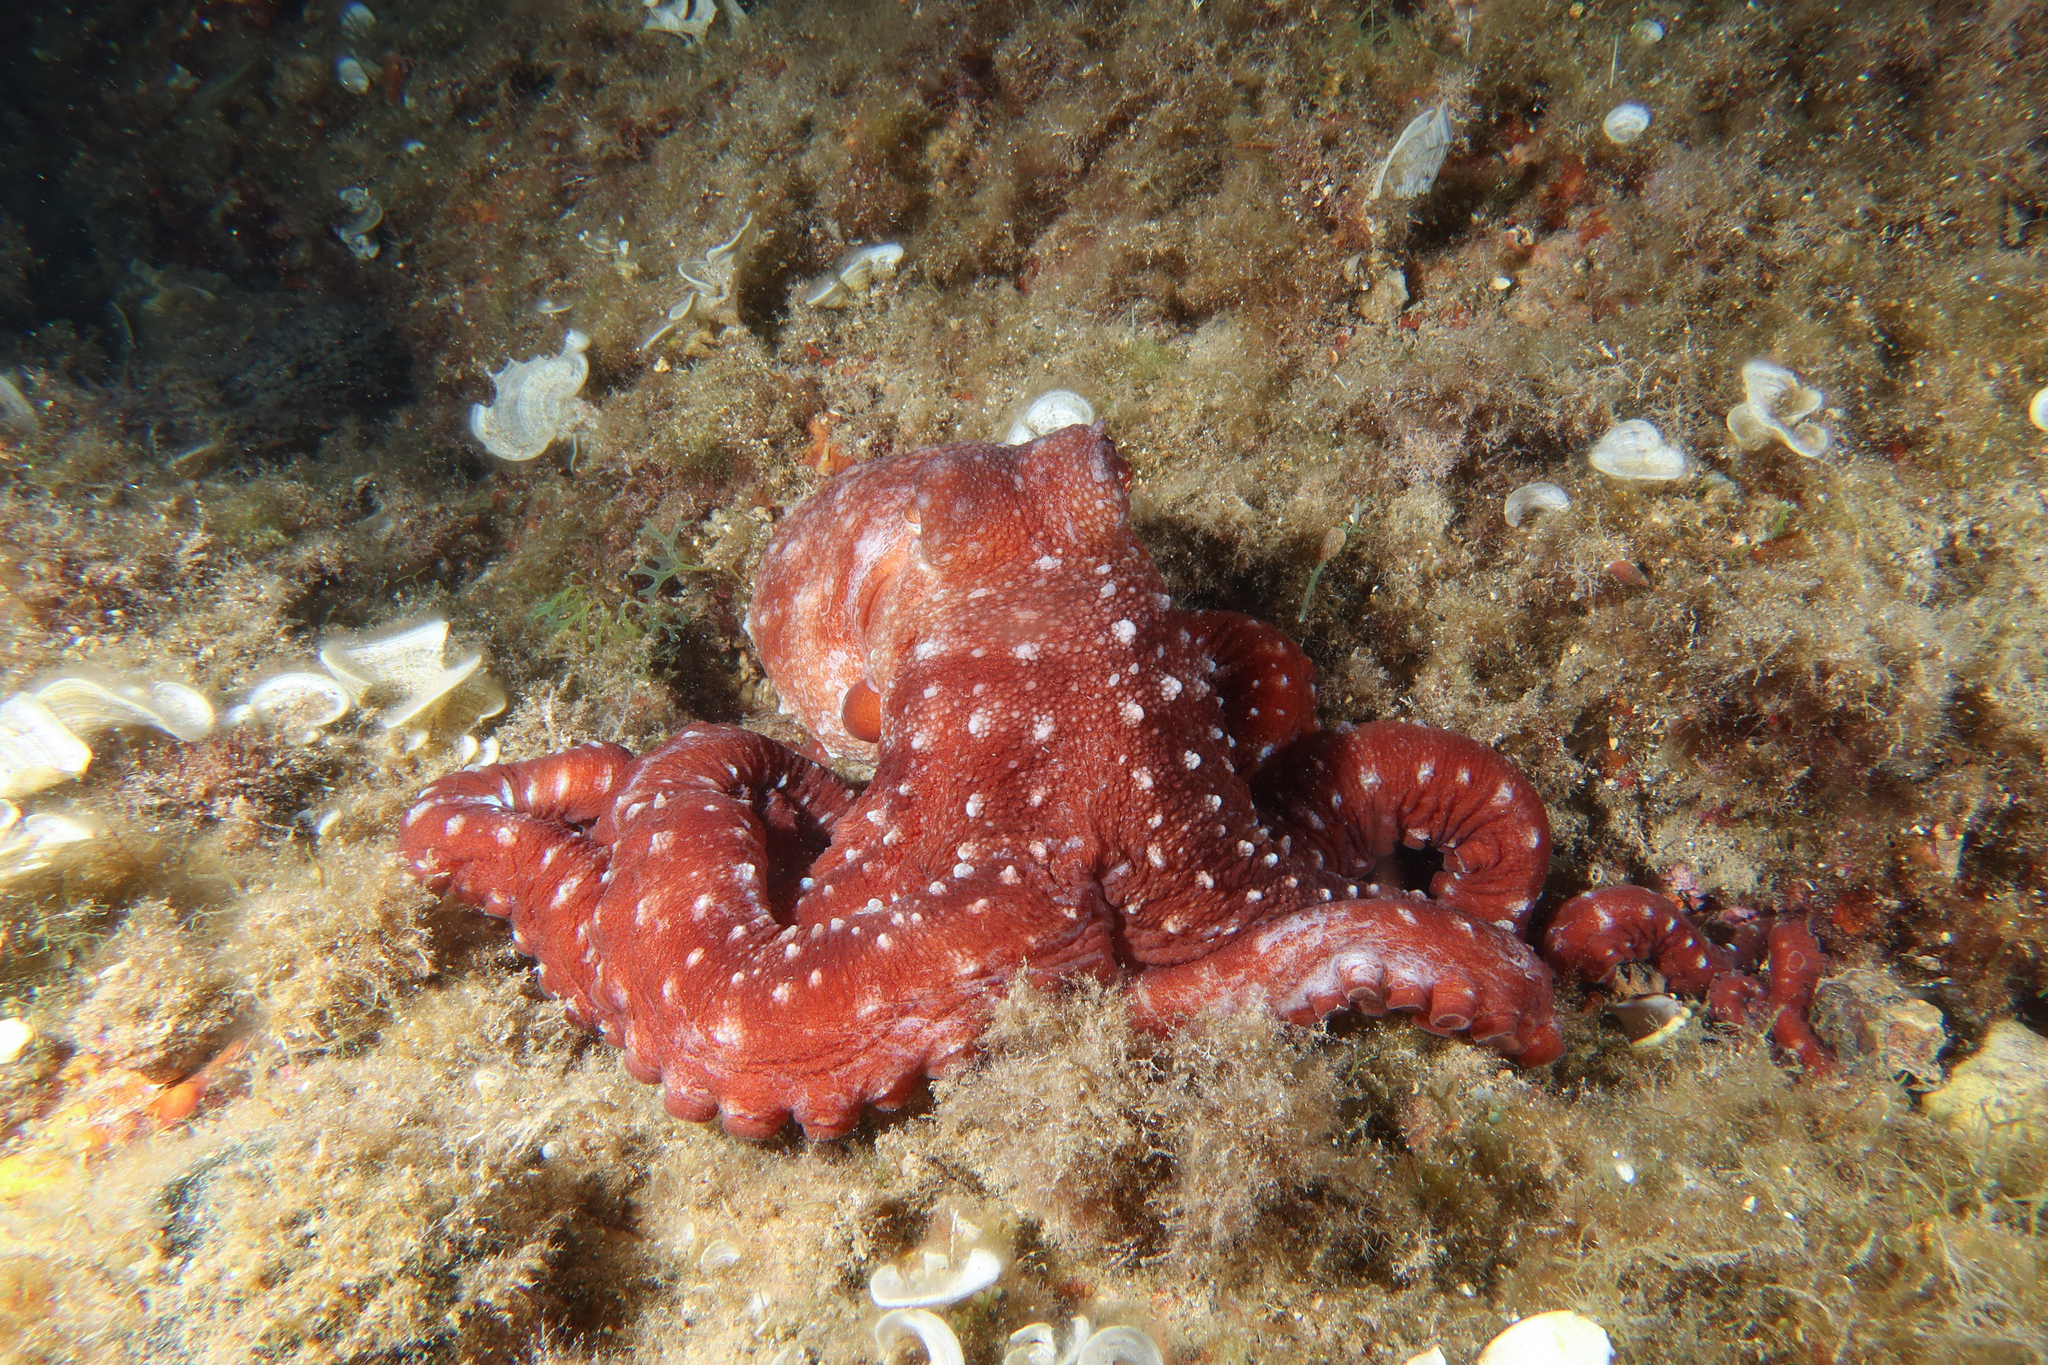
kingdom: Animalia
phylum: Mollusca
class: Cephalopoda
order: Octopoda
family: Octopodidae
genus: Callistoctopus
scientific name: Callistoctopus macropus
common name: Atlantic white-spotted octopus
